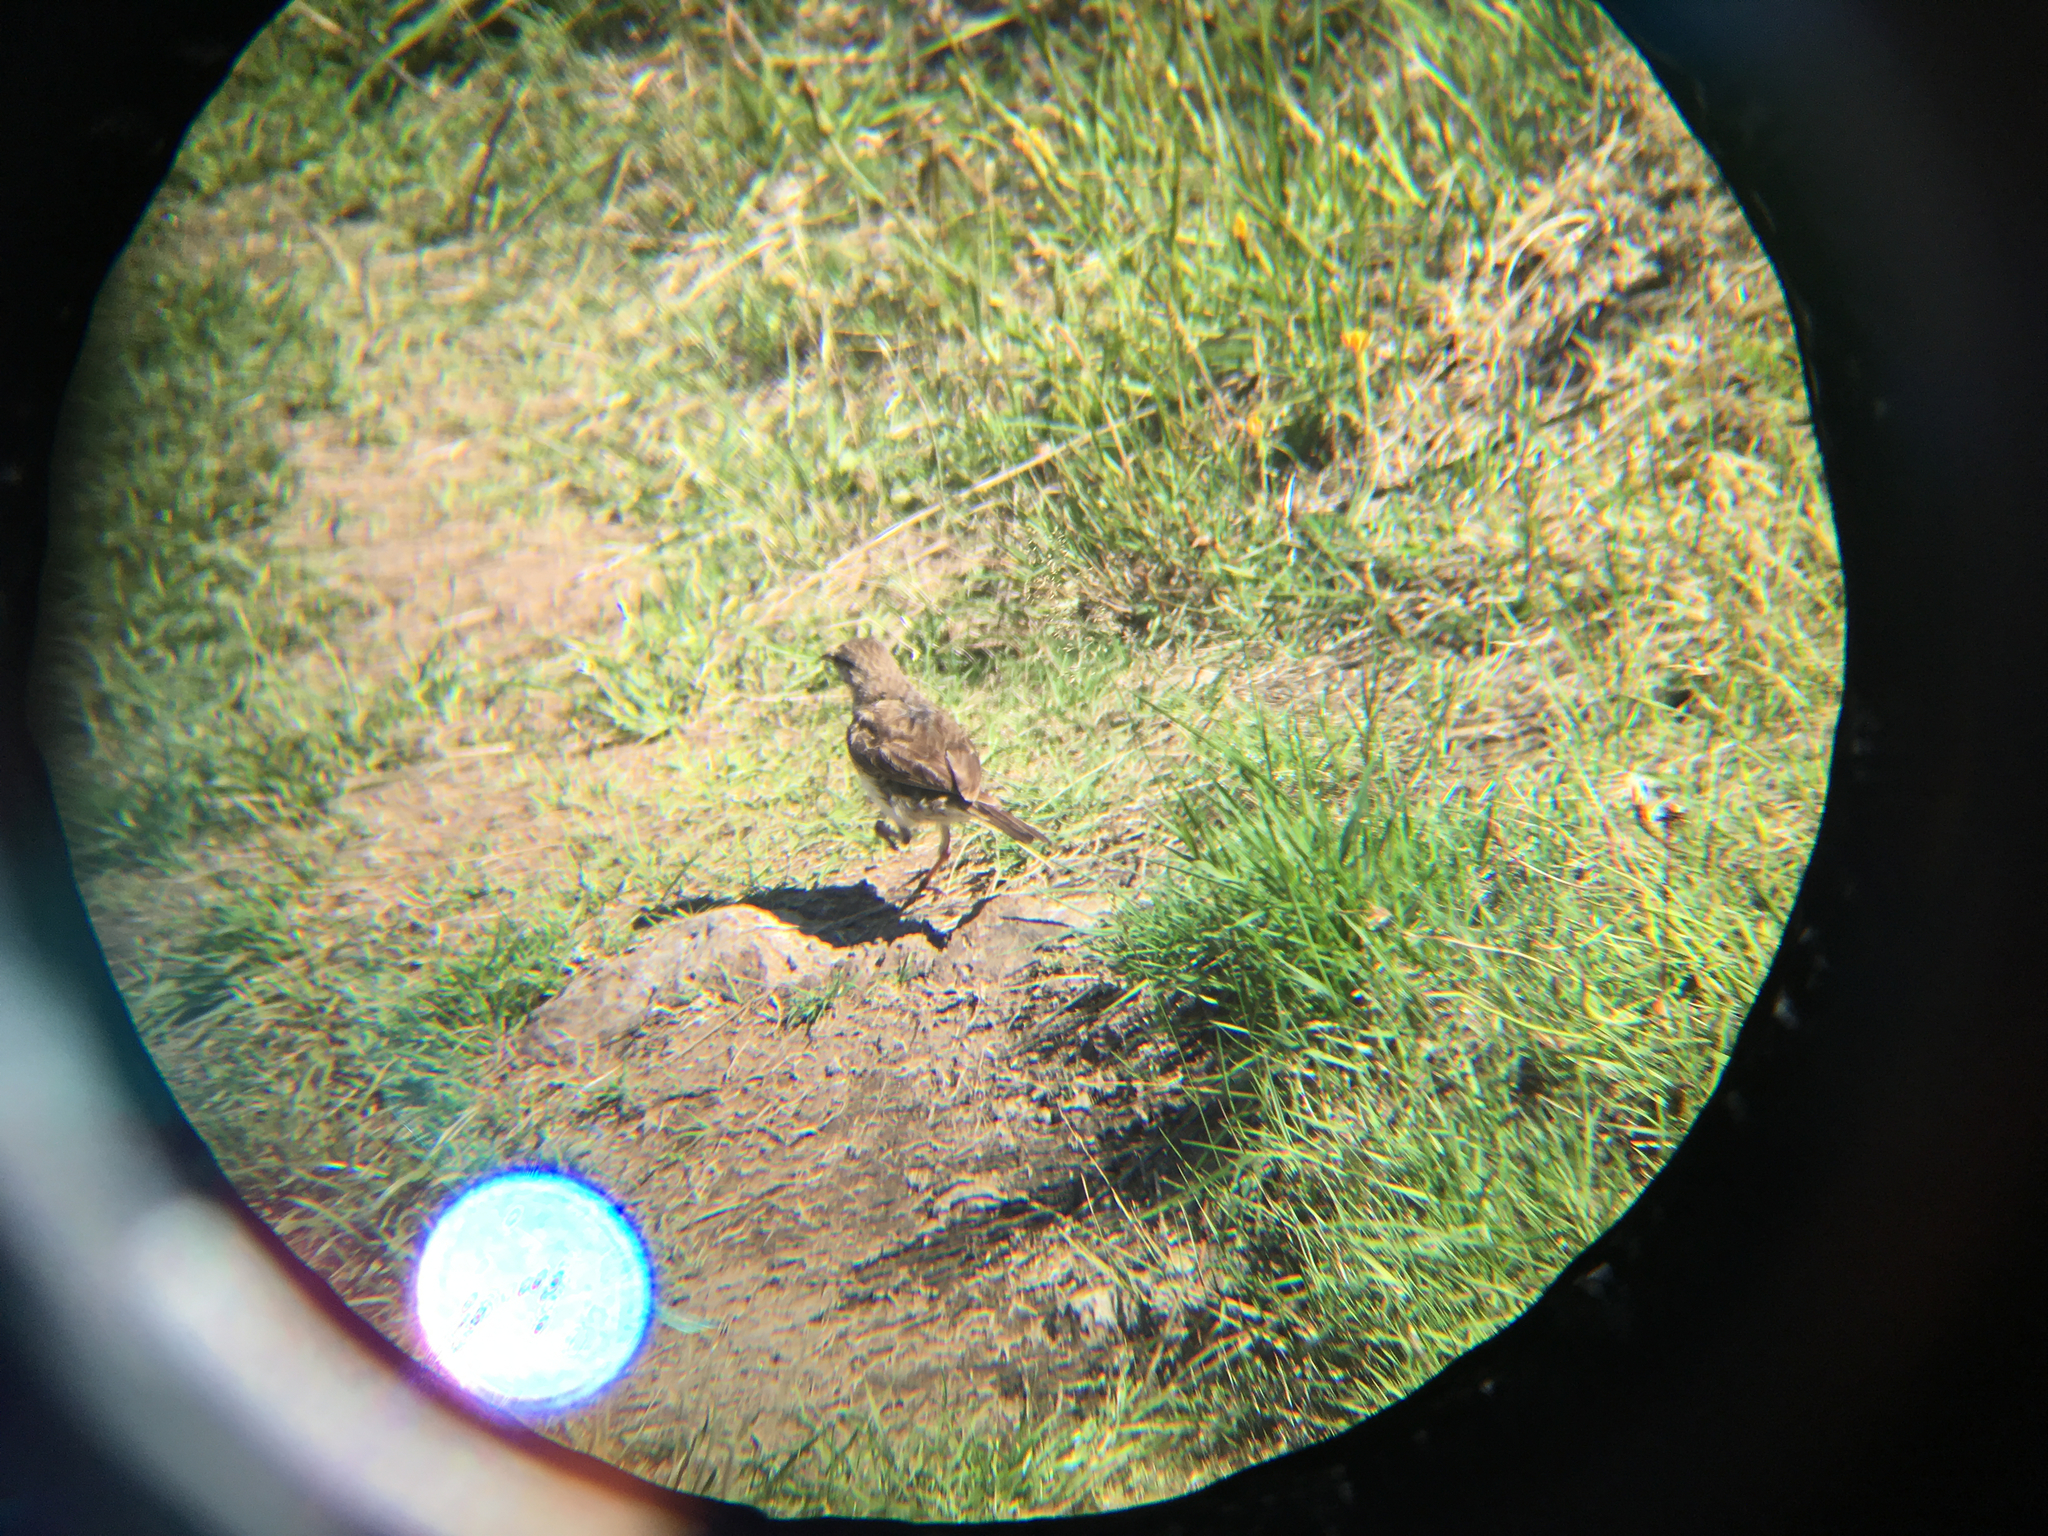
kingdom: Animalia
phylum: Chordata
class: Aves
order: Passeriformes
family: Motacillidae
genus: Anthus
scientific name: Anthus novaeseelandiae
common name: New zealand pipit
